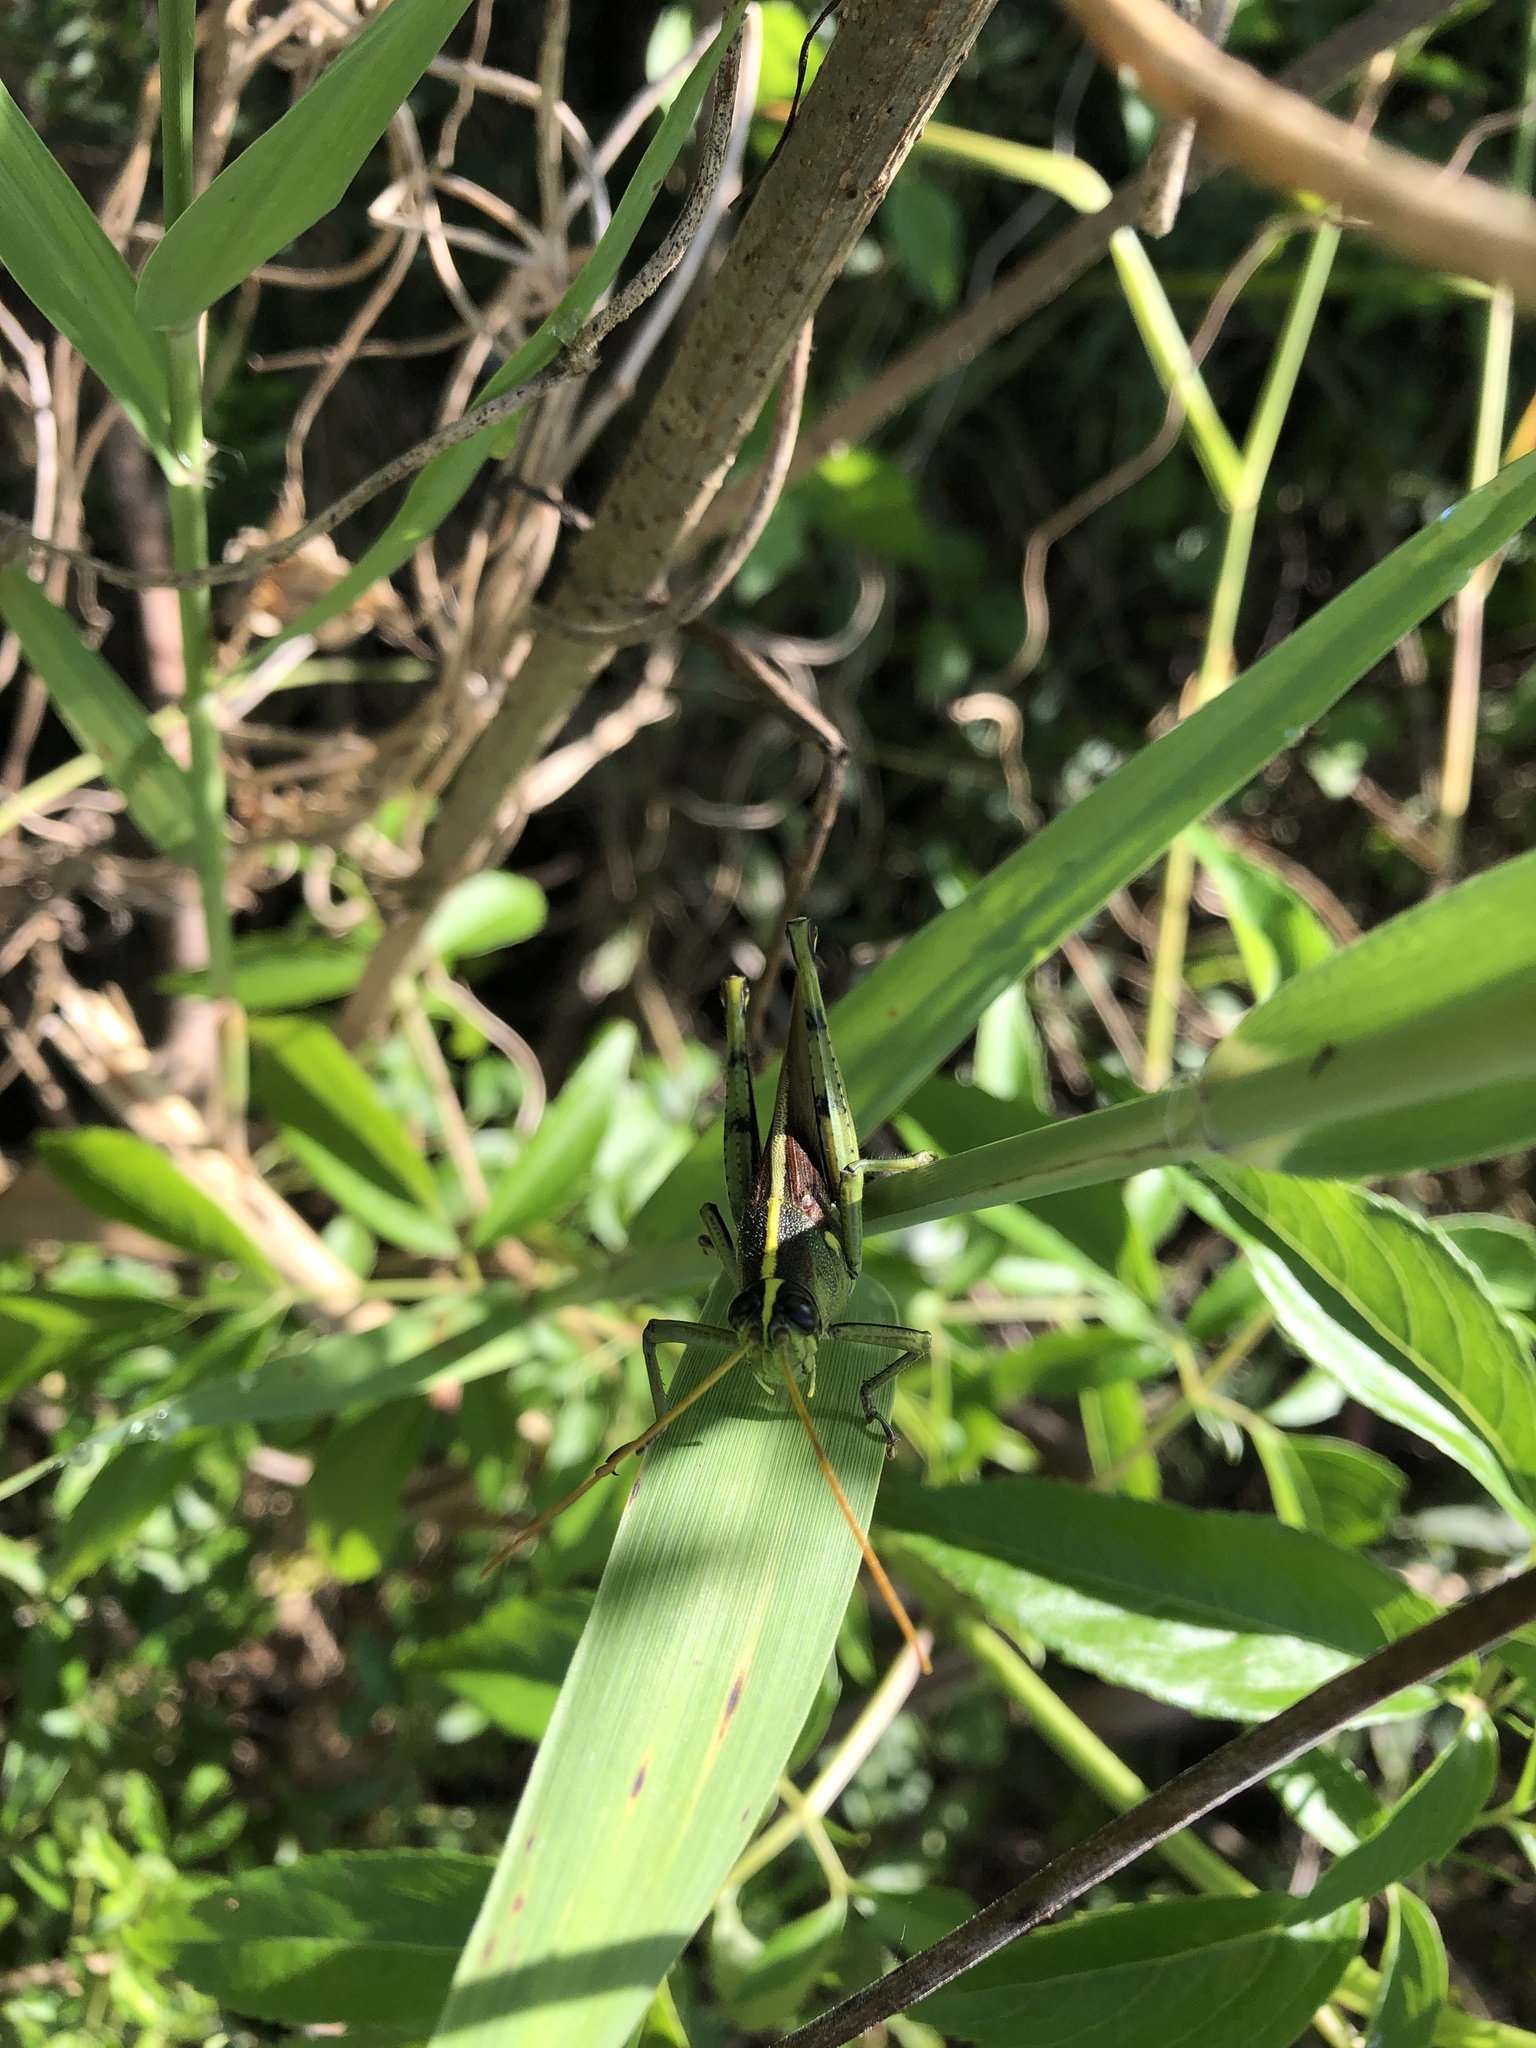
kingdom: Animalia
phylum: Arthropoda
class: Insecta
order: Orthoptera
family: Acrididae
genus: Schistocerca
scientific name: Schistocerca obscura
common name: Obscure bird grasshopper
